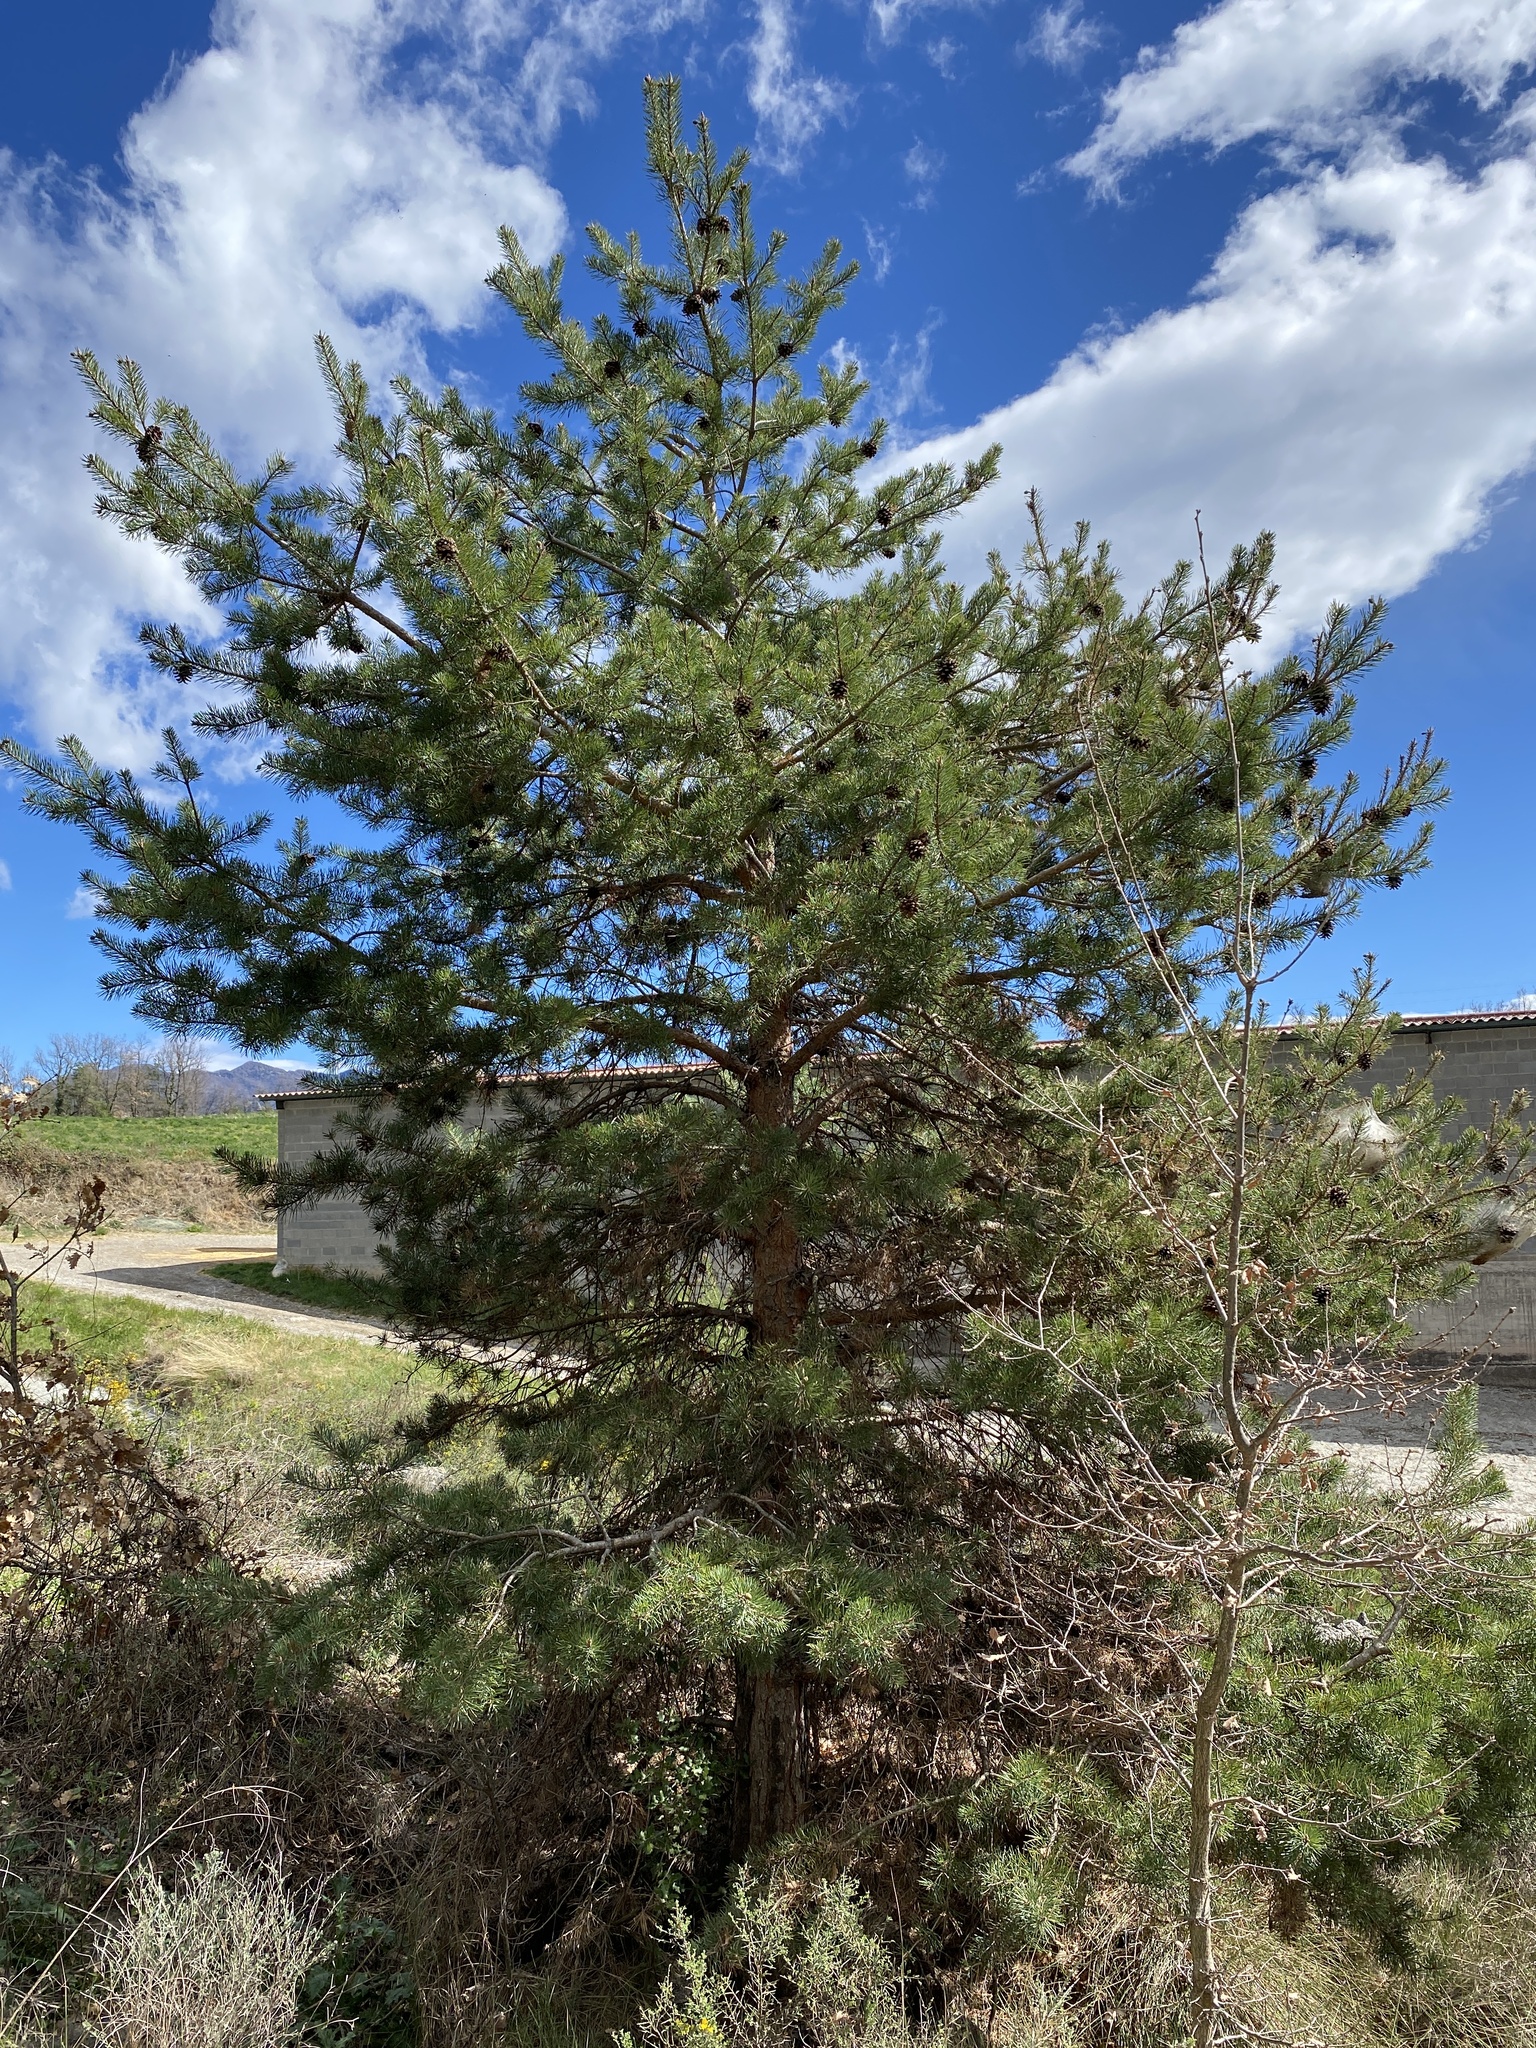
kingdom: Plantae
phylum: Tracheophyta
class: Pinopsida
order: Pinales
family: Pinaceae
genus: Pinus
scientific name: Pinus sylvestris
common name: Scots pine
